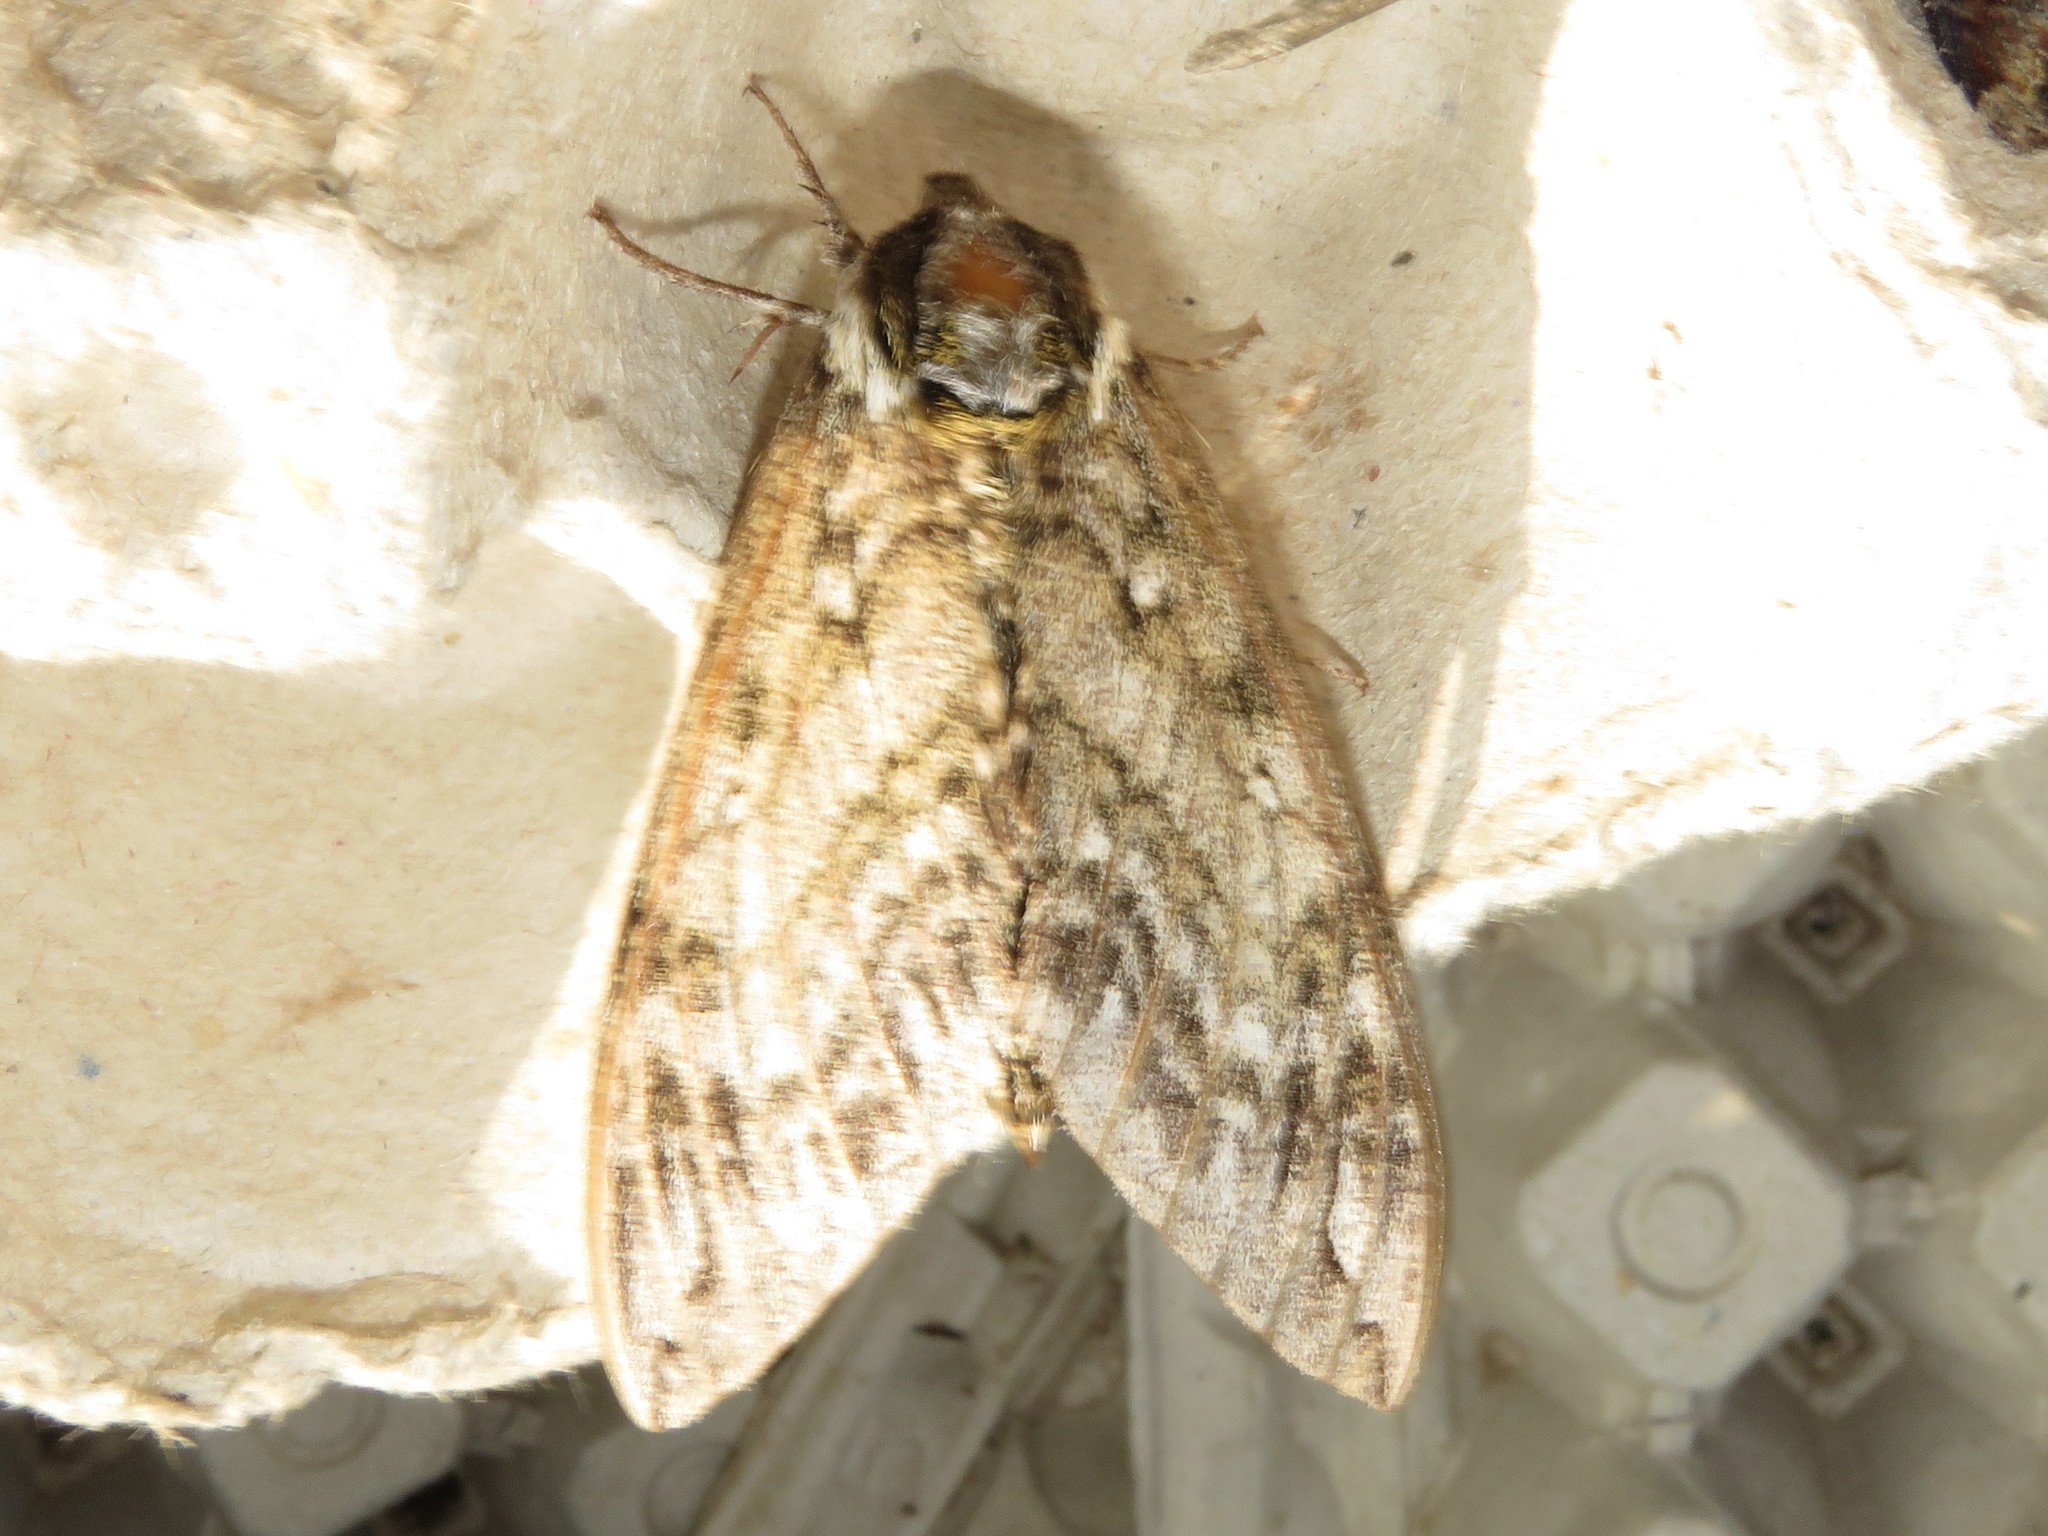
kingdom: Animalia
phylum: Arthropoda
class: Insecta
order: Lepidoptera
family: Sphingidae
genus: Ceratomia
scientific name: Ceratomia undulosa
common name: Waved sphinx
